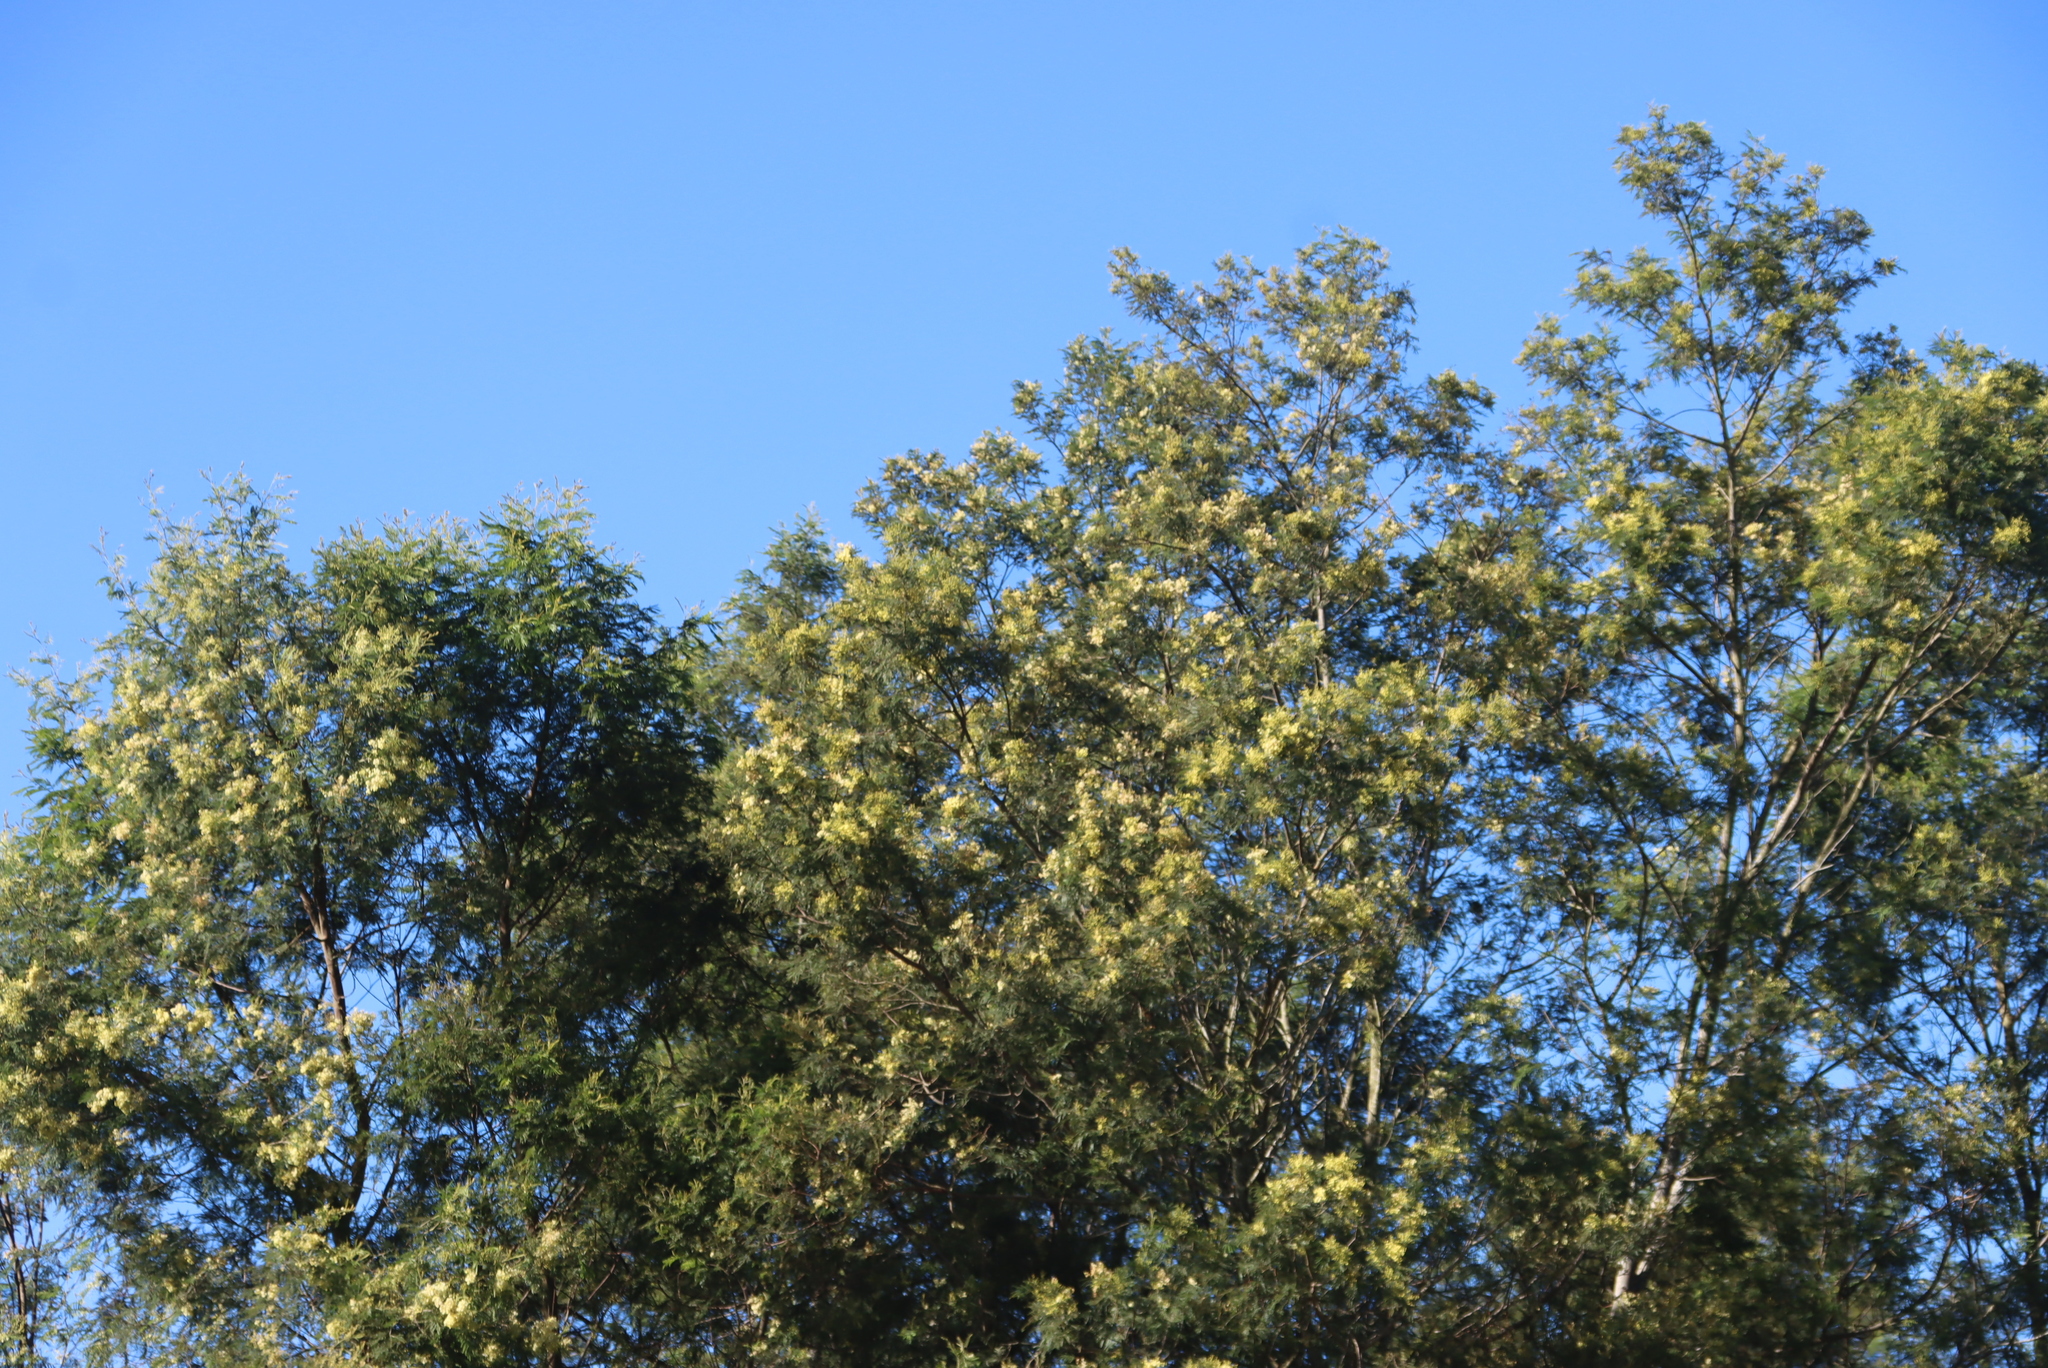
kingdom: Plantae
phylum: Tracheophyta
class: Magnoliopsida
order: Fabales
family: Fabaceae
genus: Acacia
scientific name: Acacia mearnsii
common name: Black wattle
